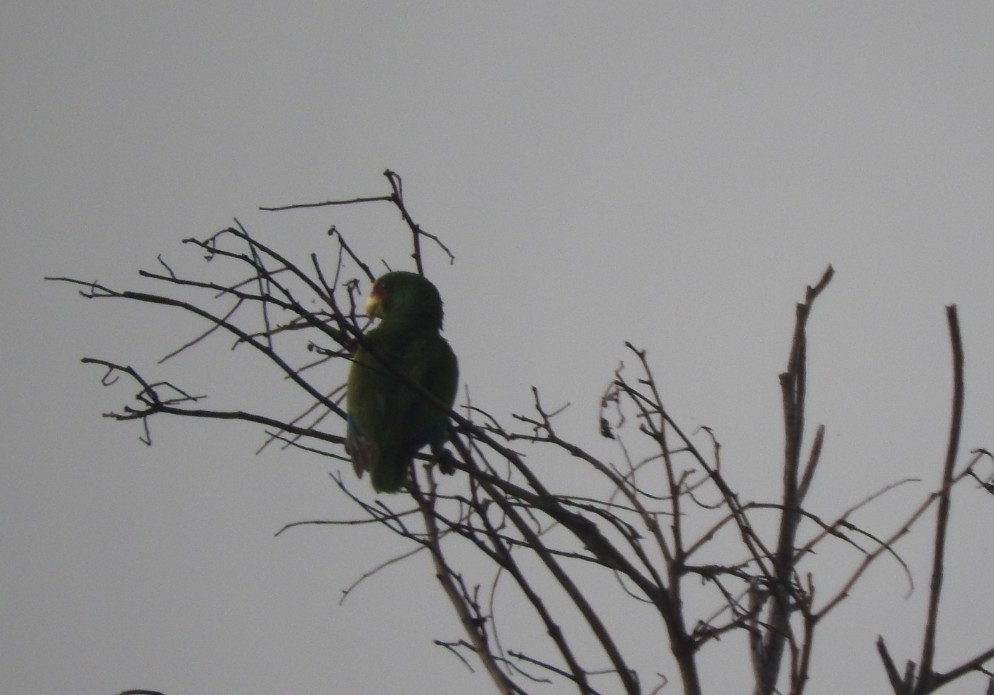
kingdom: Animalia
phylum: Chordata
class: Aves
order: Psittaciformes
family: Psittacidae
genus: Amazona
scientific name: Amazona albifrons
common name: White-fronted amazon
